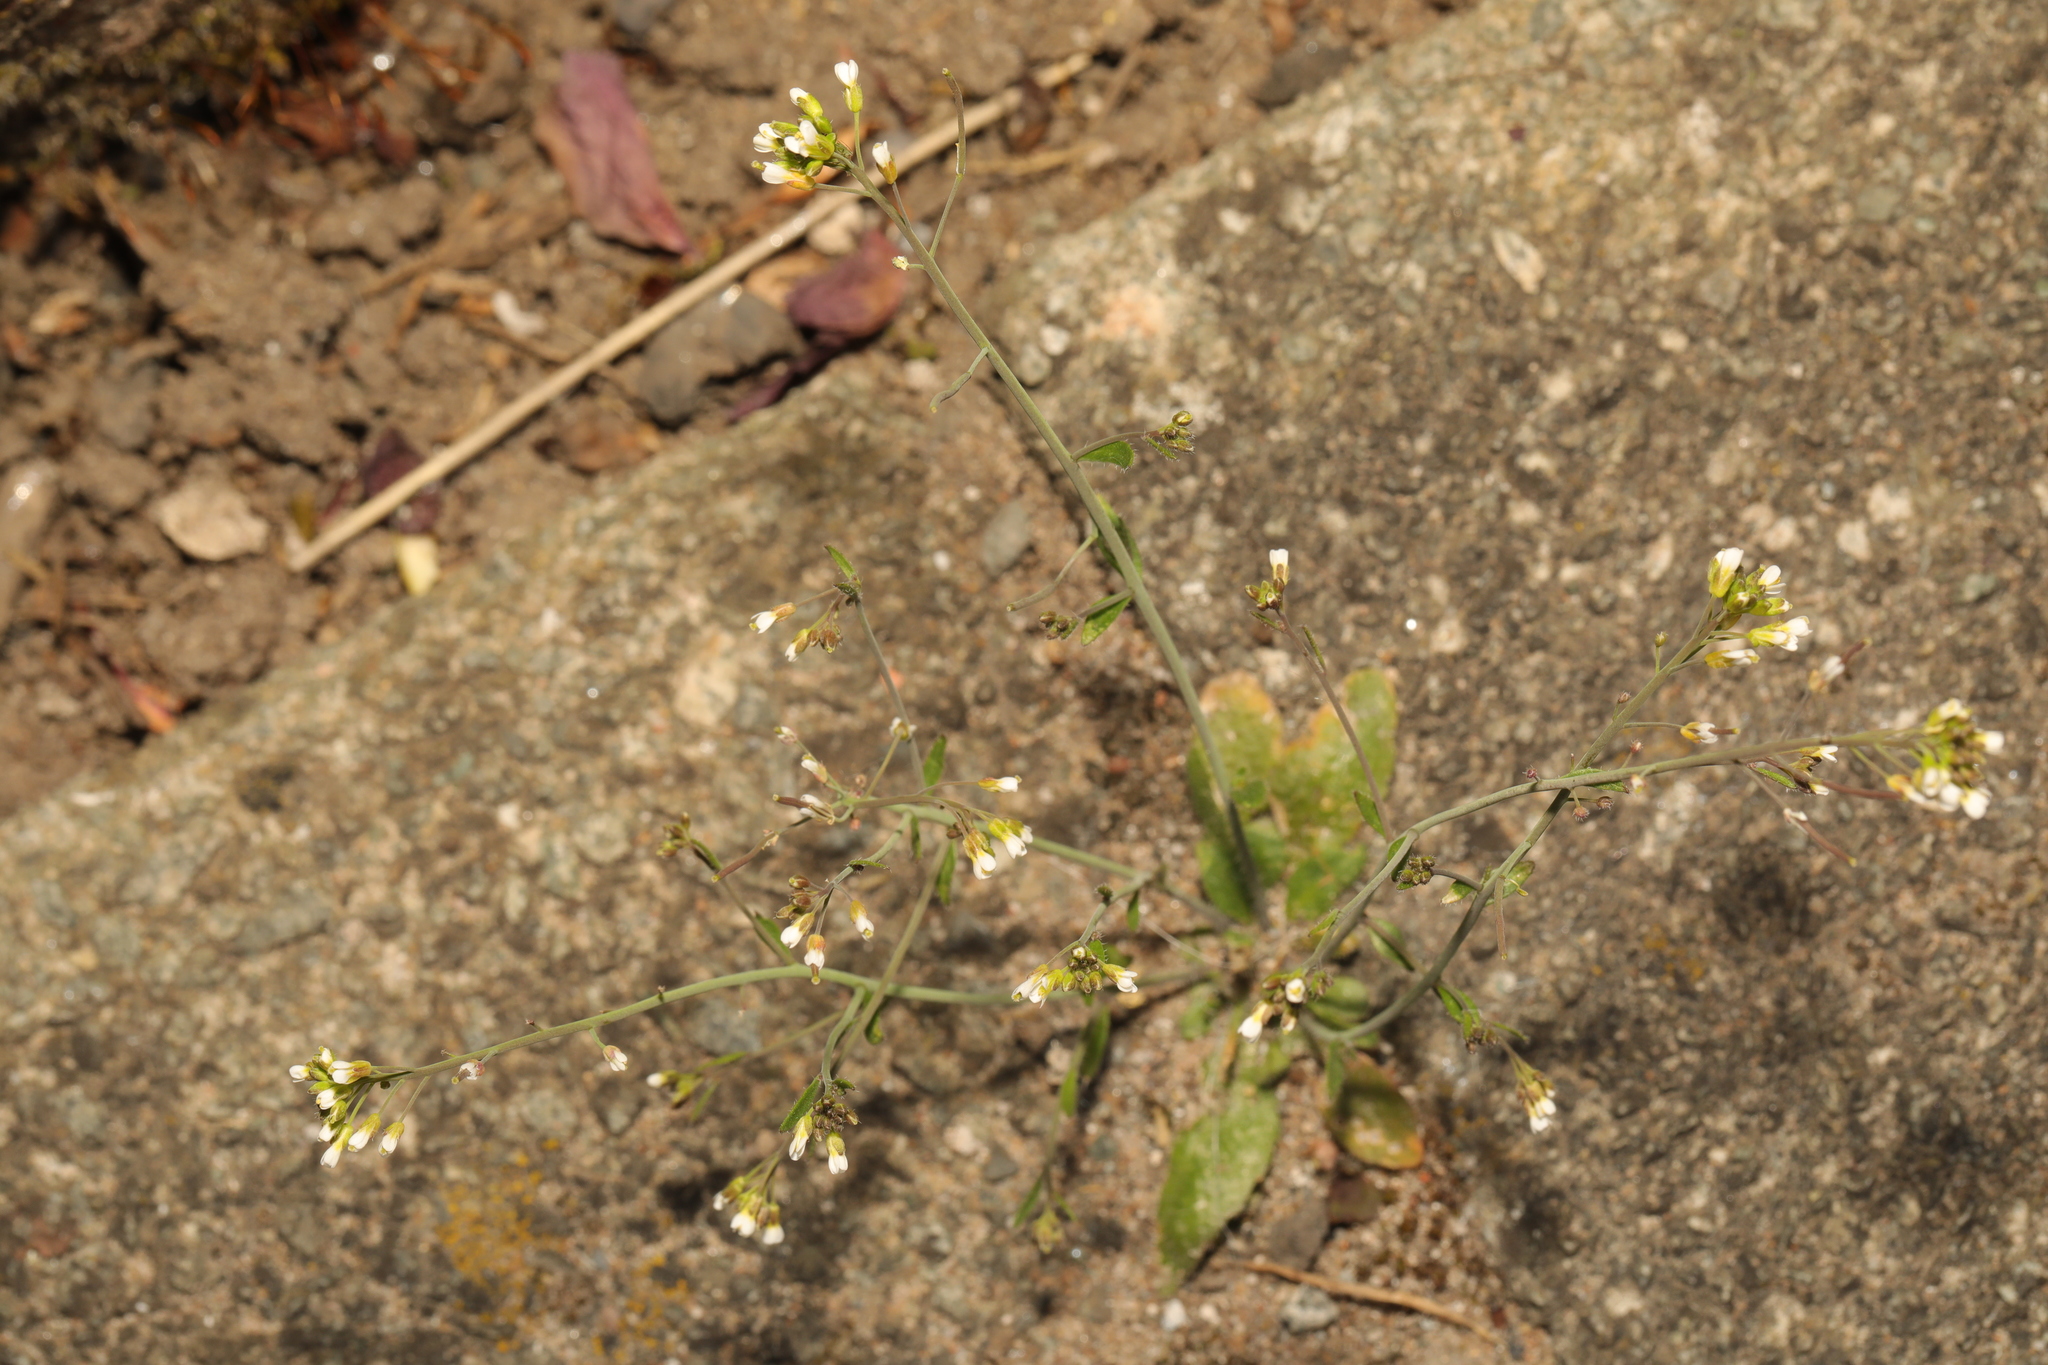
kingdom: Plantae
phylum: Tracheophyta
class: Magnoliopsida
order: Brassicales
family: Brassicaceae
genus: Arabidopsis
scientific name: Arabidopsis thaliana
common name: Thale cress
